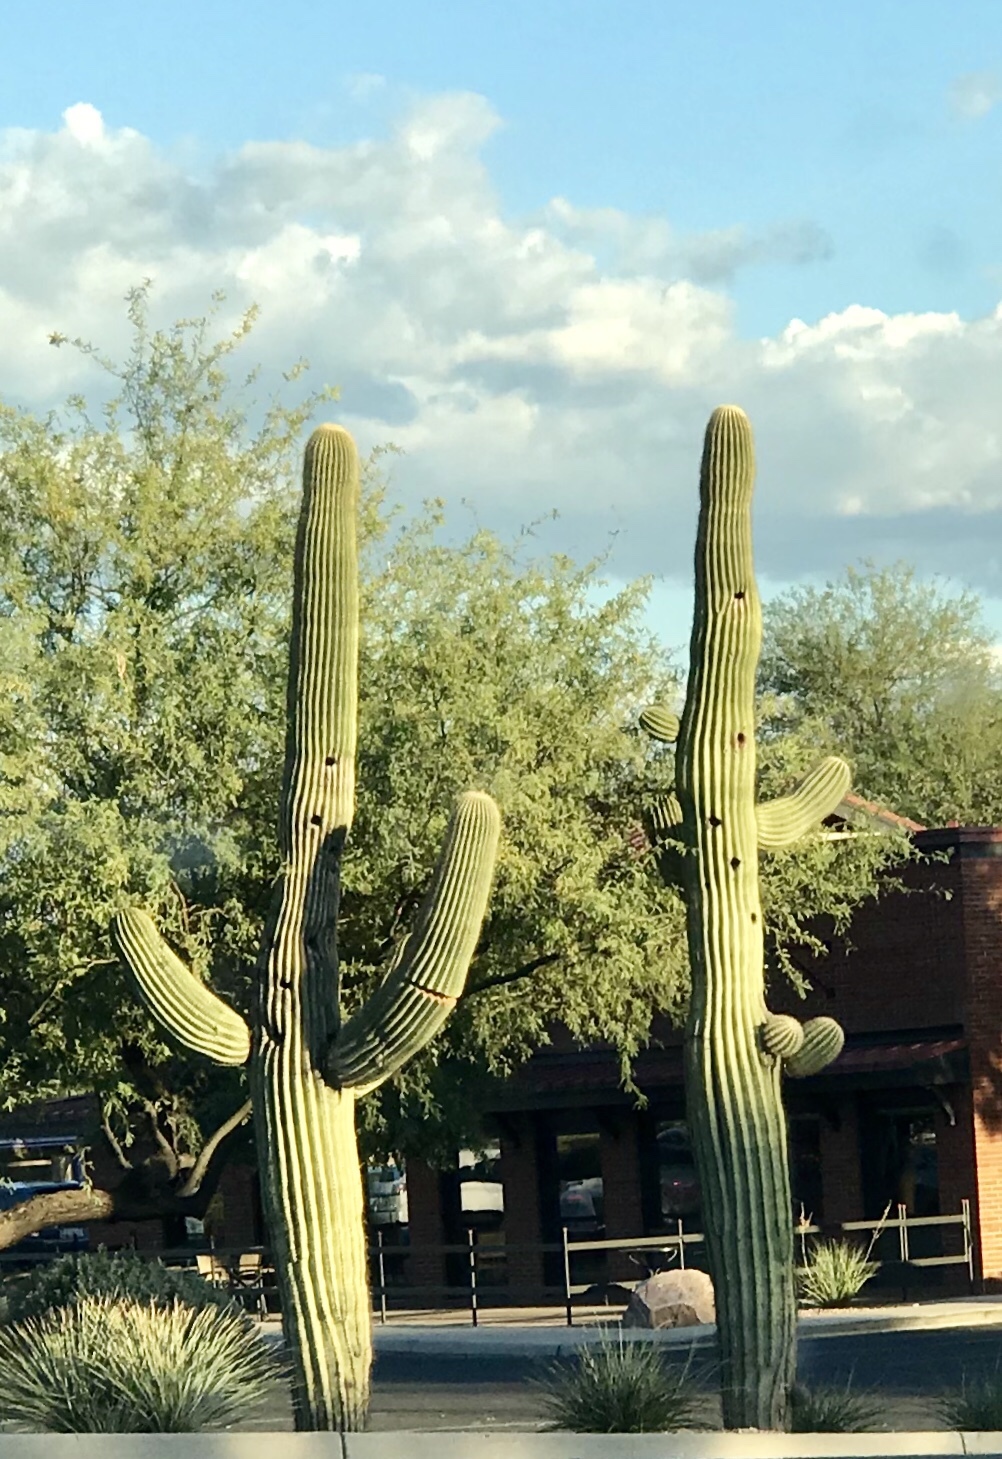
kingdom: Plantae
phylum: Tracheophyta
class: Magnoliopsida
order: Caryophyllales
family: Cactaceae
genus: Carnegiea
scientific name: Carnegiea gigantea
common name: Saguaro
